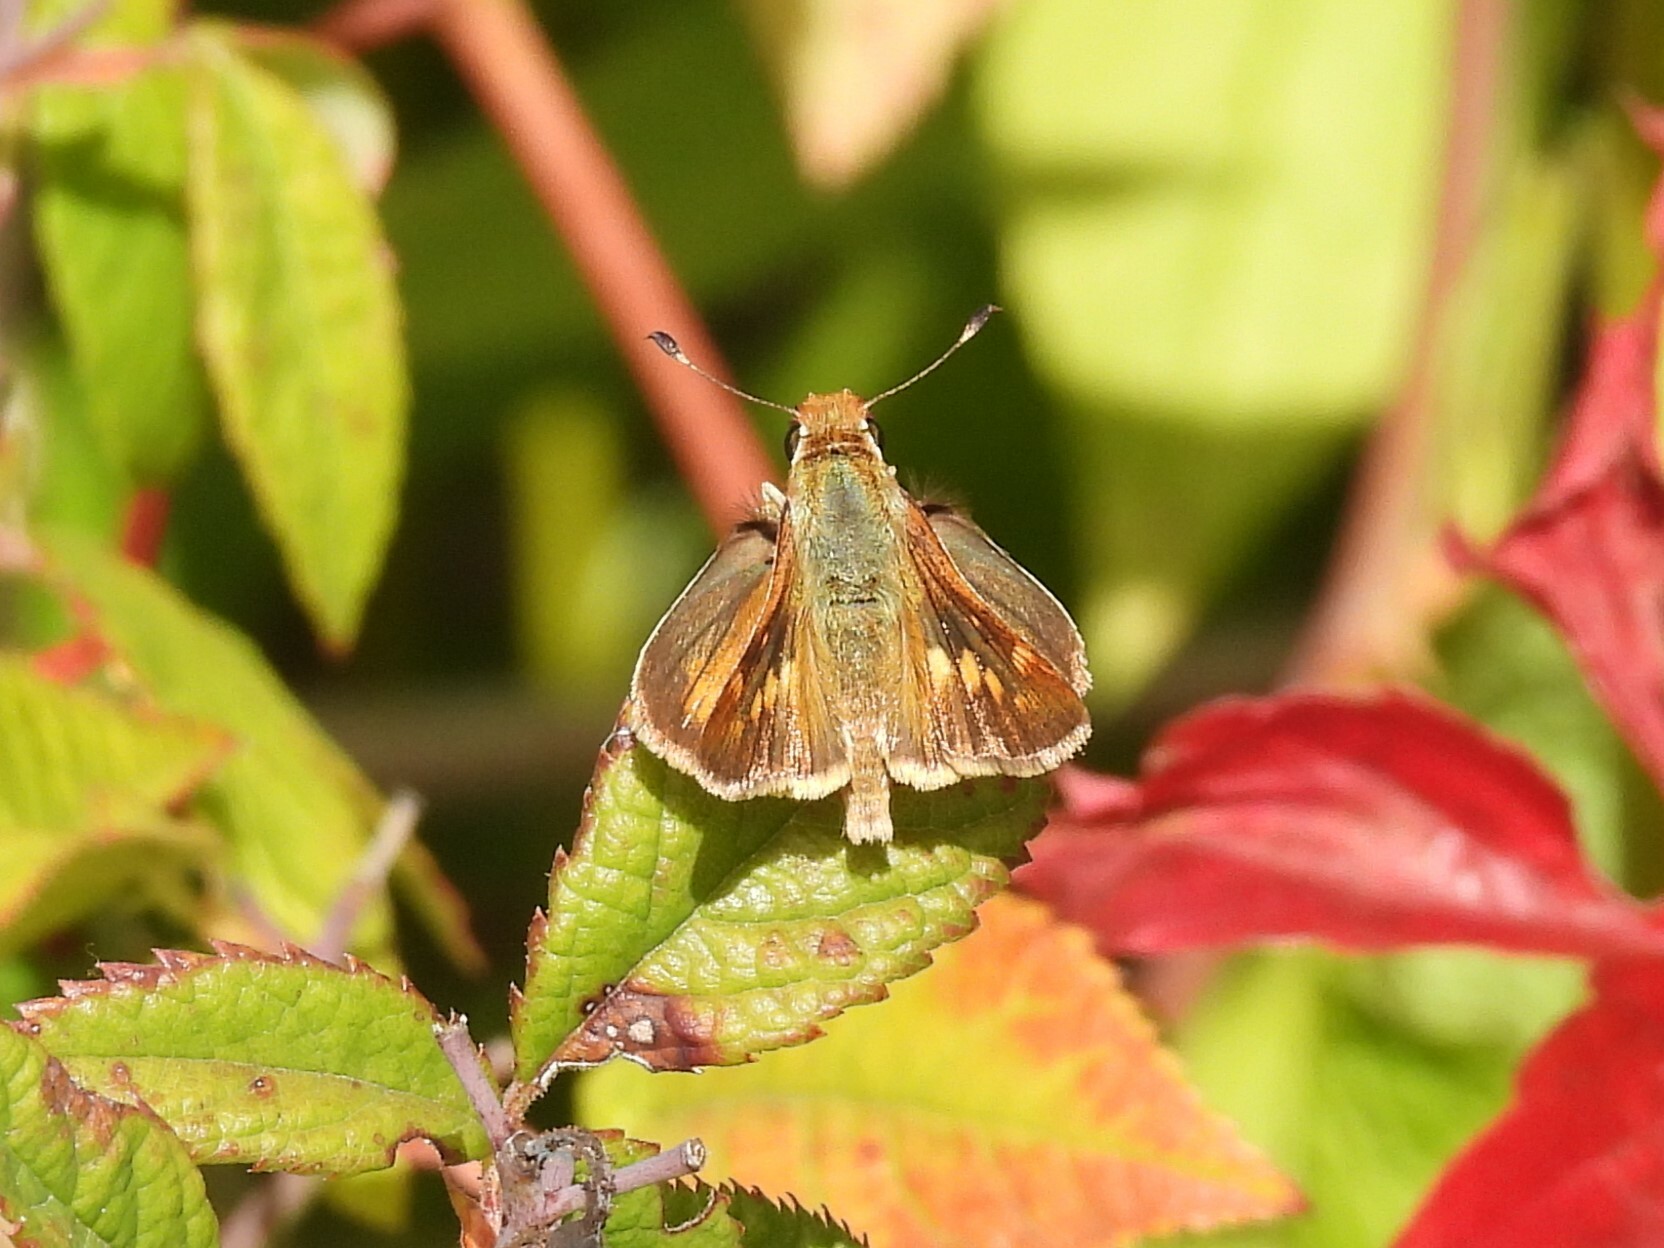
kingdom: Animalia
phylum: Arthropoda
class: Insecta
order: Lepidoptera
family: Hesperiidae
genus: Lon
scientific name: Lon melane
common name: Umber skipper
